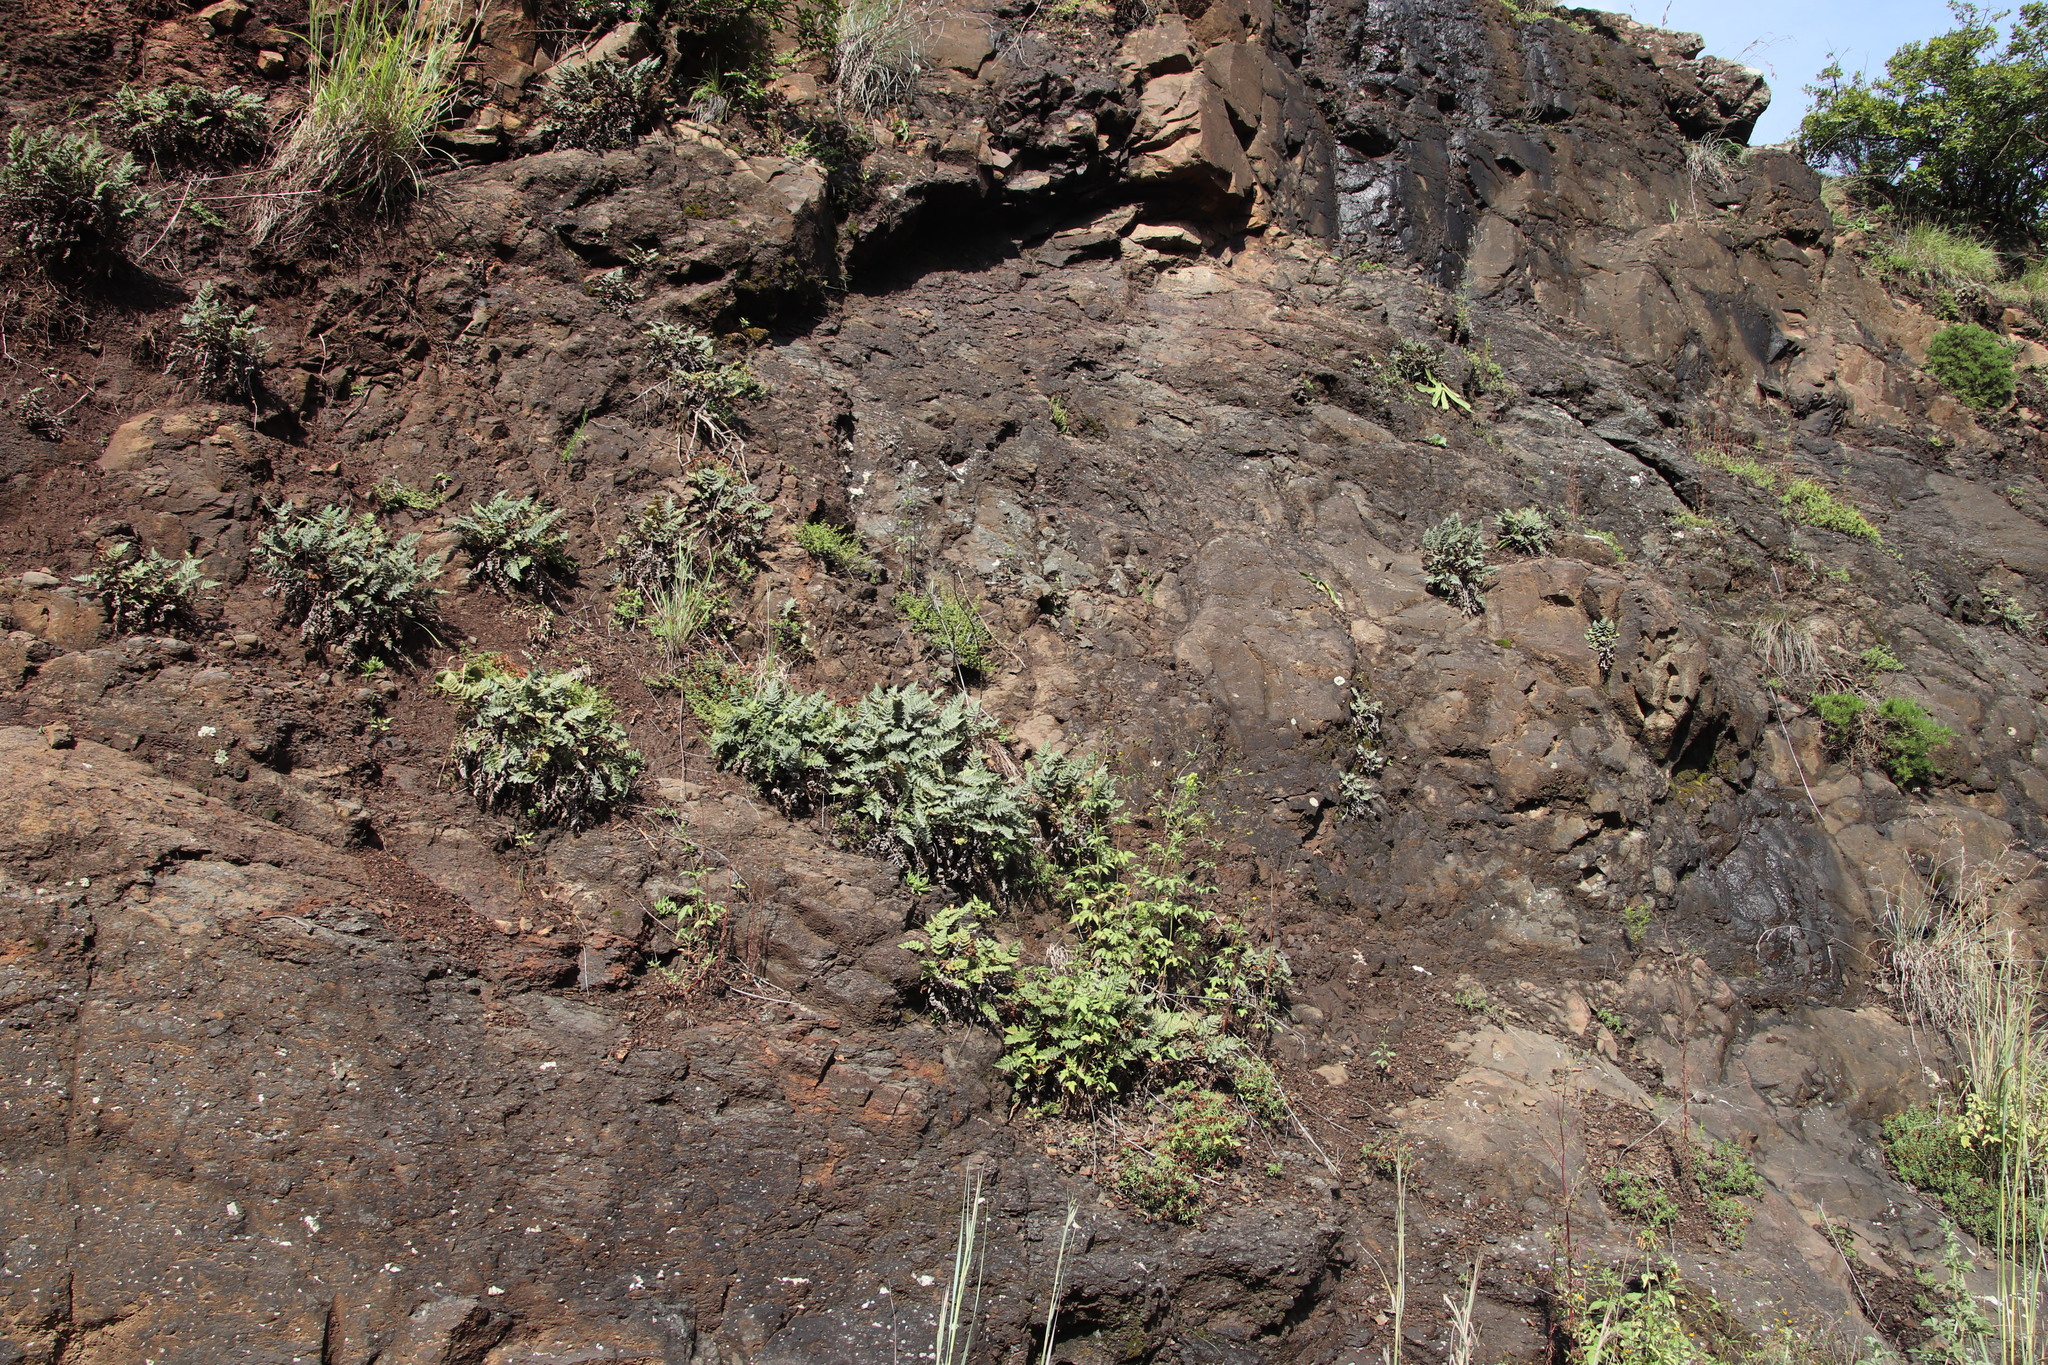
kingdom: Plantae
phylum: Tracheophyta
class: Polypodiopsida
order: Polypodiales
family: Pteridaceae
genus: Cheilanthes
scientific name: Cheilanthes eckloniana
